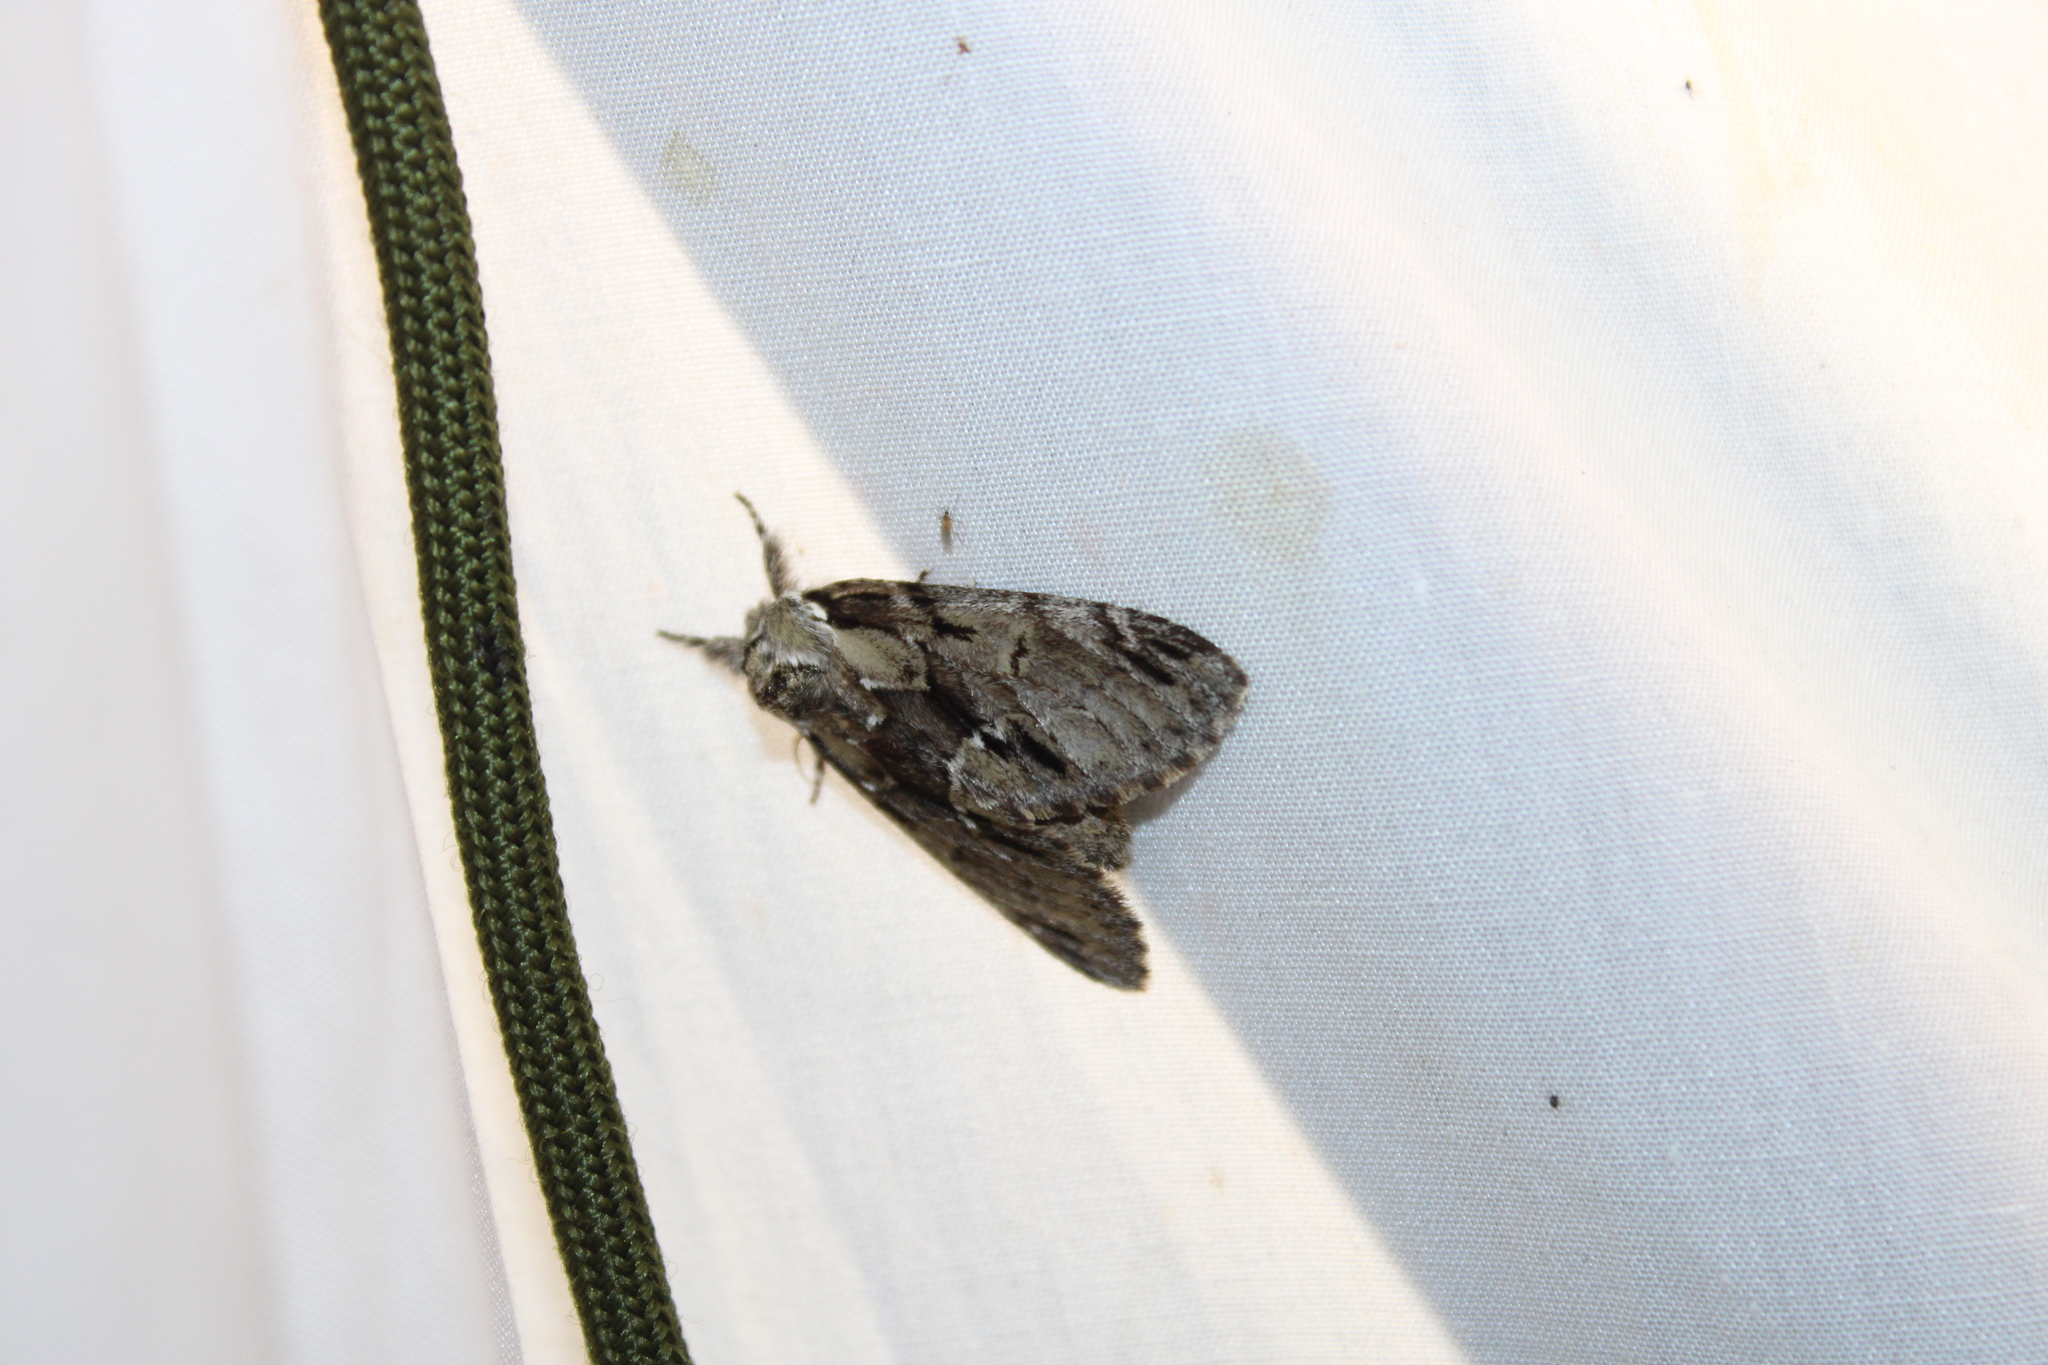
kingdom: Animalia
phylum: Arthropoda
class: Insecta
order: Lepidoptera
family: Notodontidae
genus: Paraeschra
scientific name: Paraeschra georgica
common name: Georgian prominent
